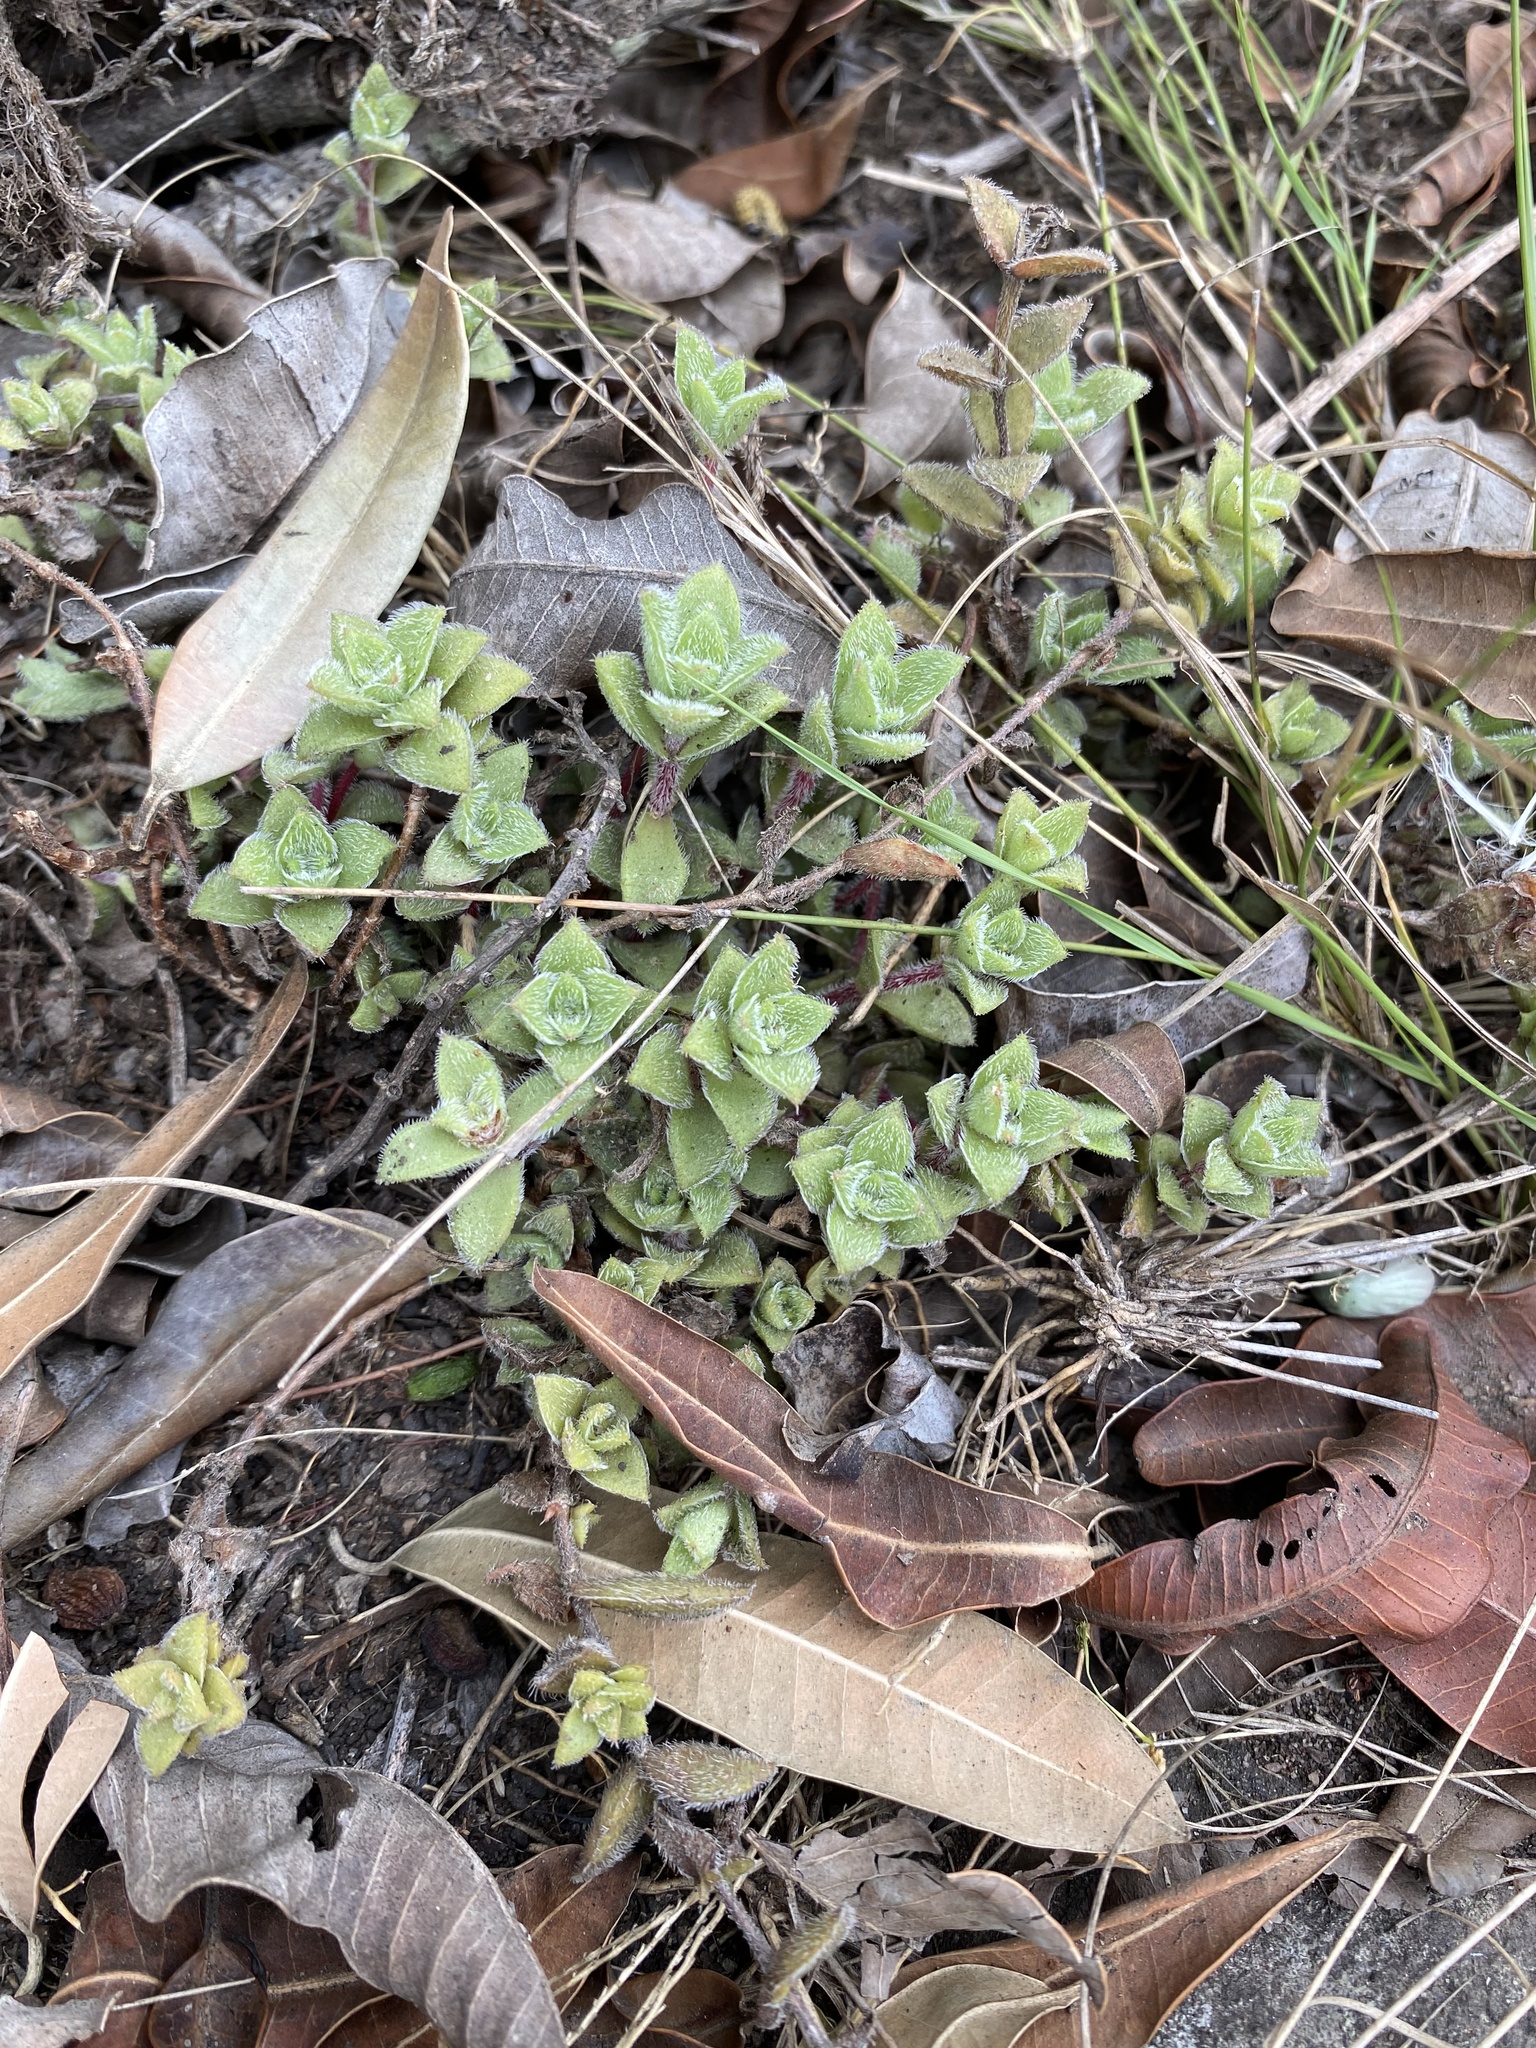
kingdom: Plantae
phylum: Tracheophyta
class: Magnoliopsida
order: Saxifragales
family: Crassulaceae
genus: Crassula
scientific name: Crassula setulosa
